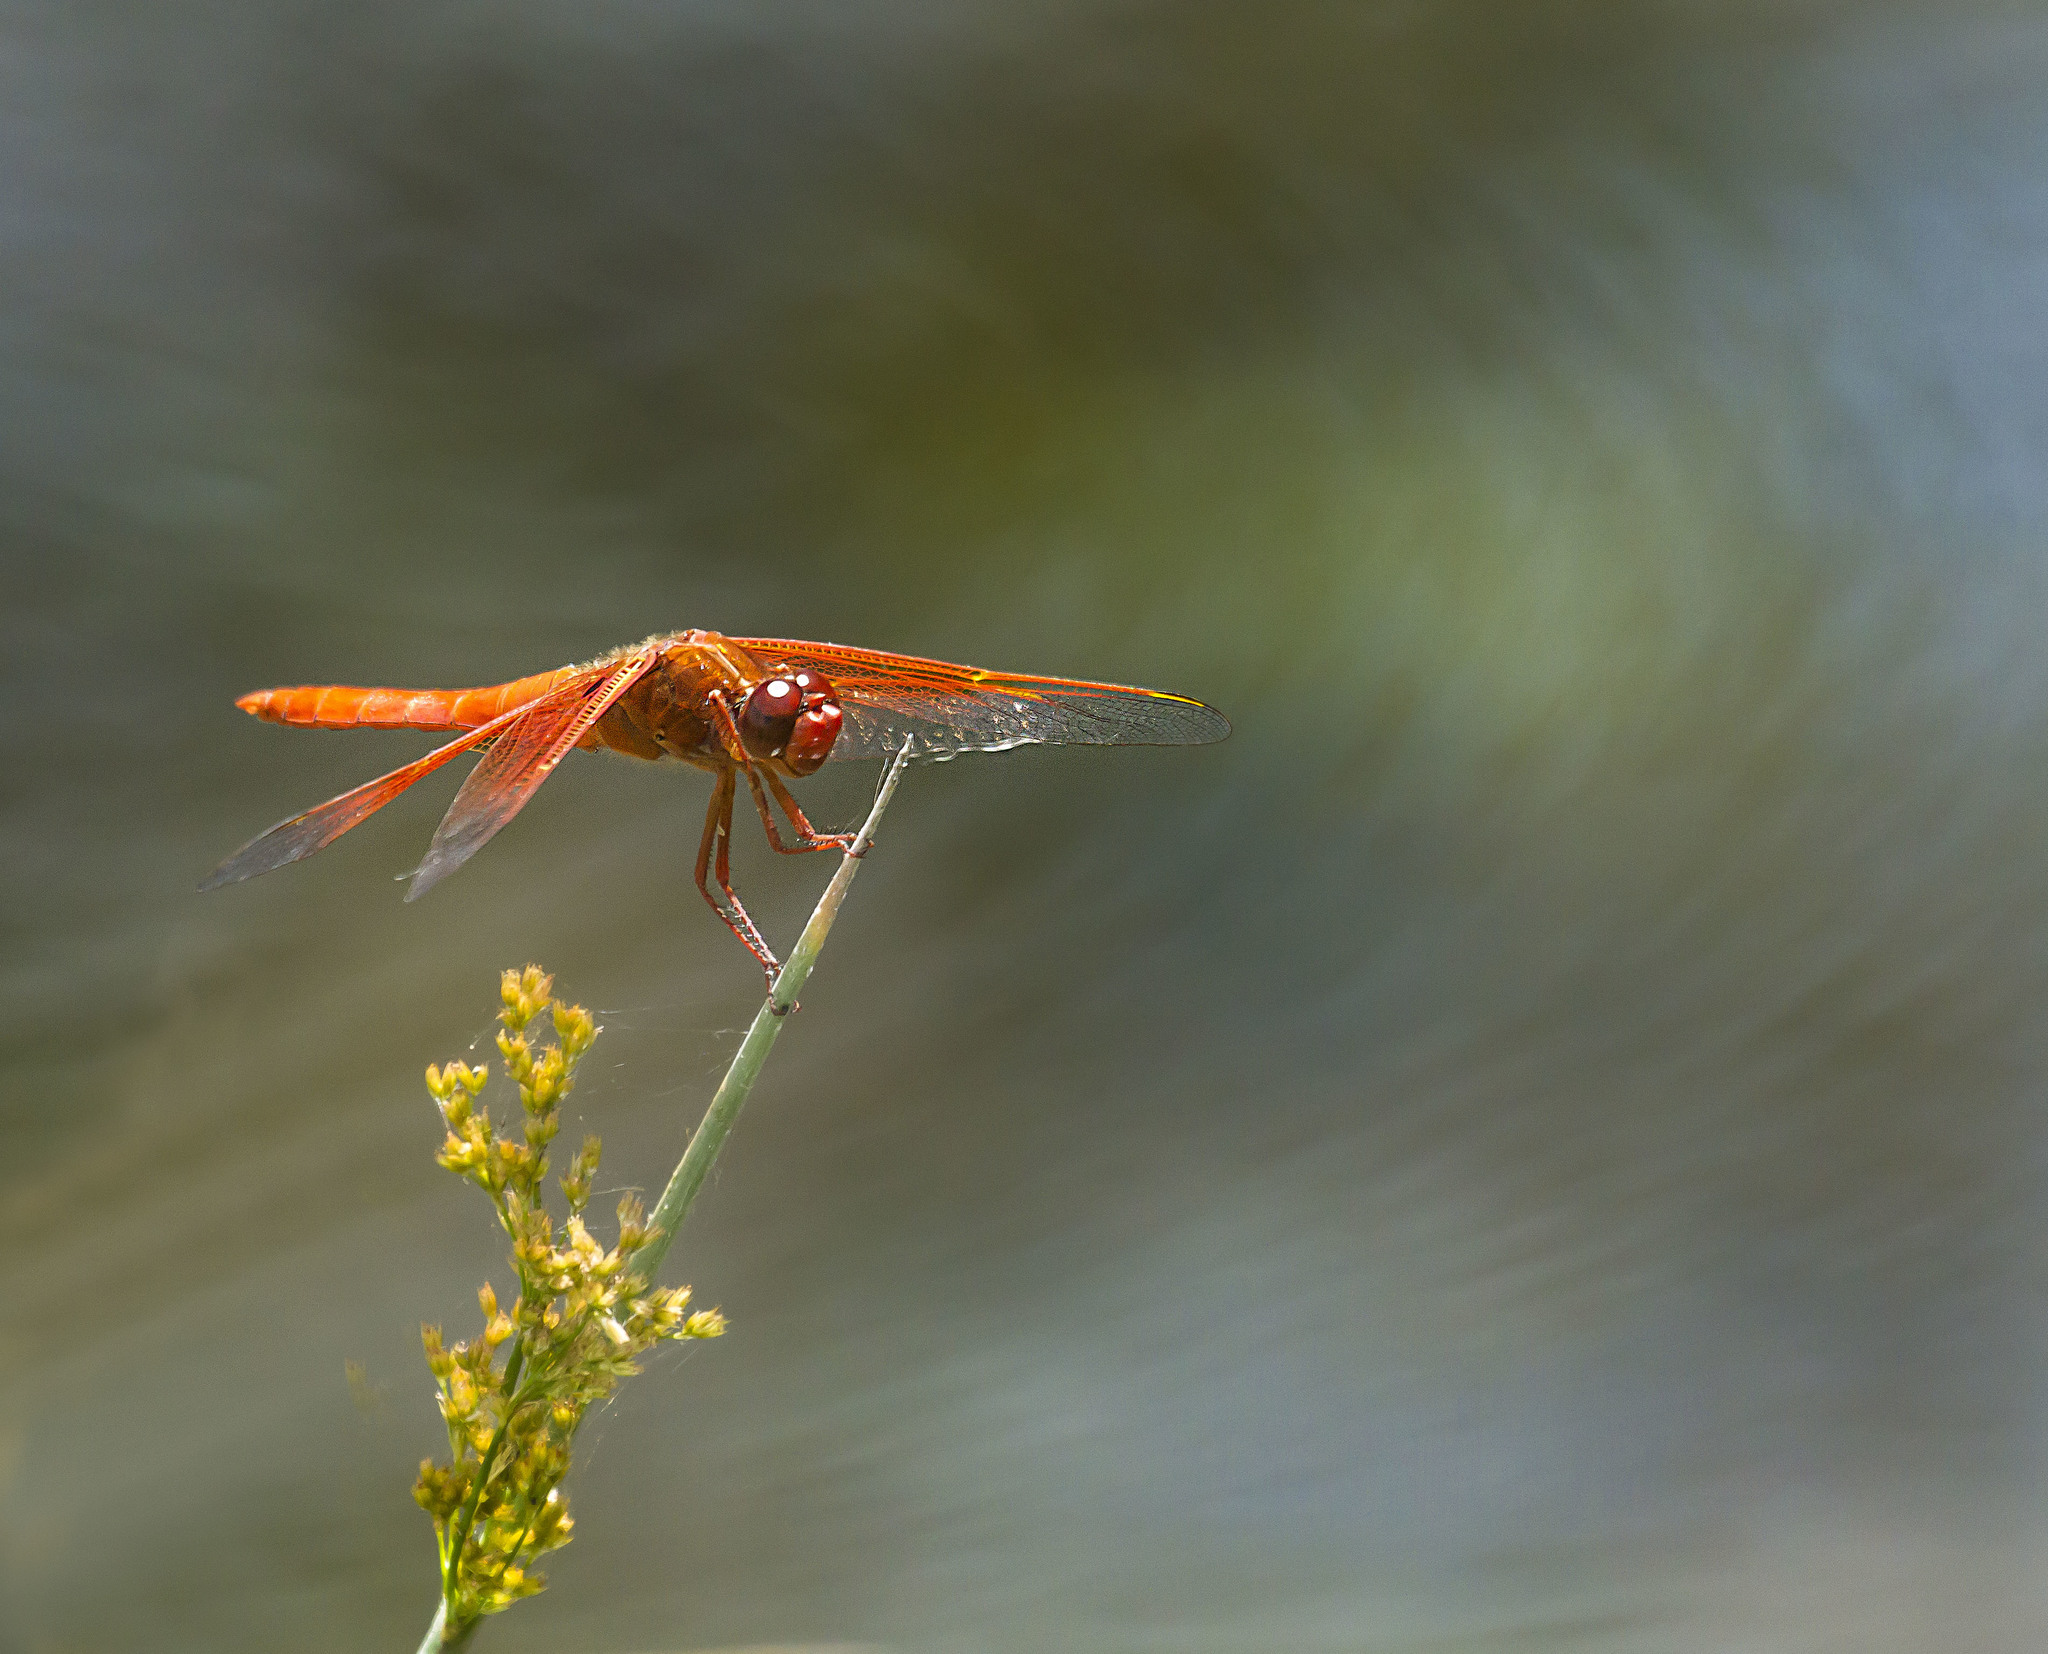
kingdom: Animalia
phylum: Arthropoda
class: Insecta
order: Odonata
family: Libellulidae
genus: Libellula
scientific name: Libellula saturata
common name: Flame skimmer
